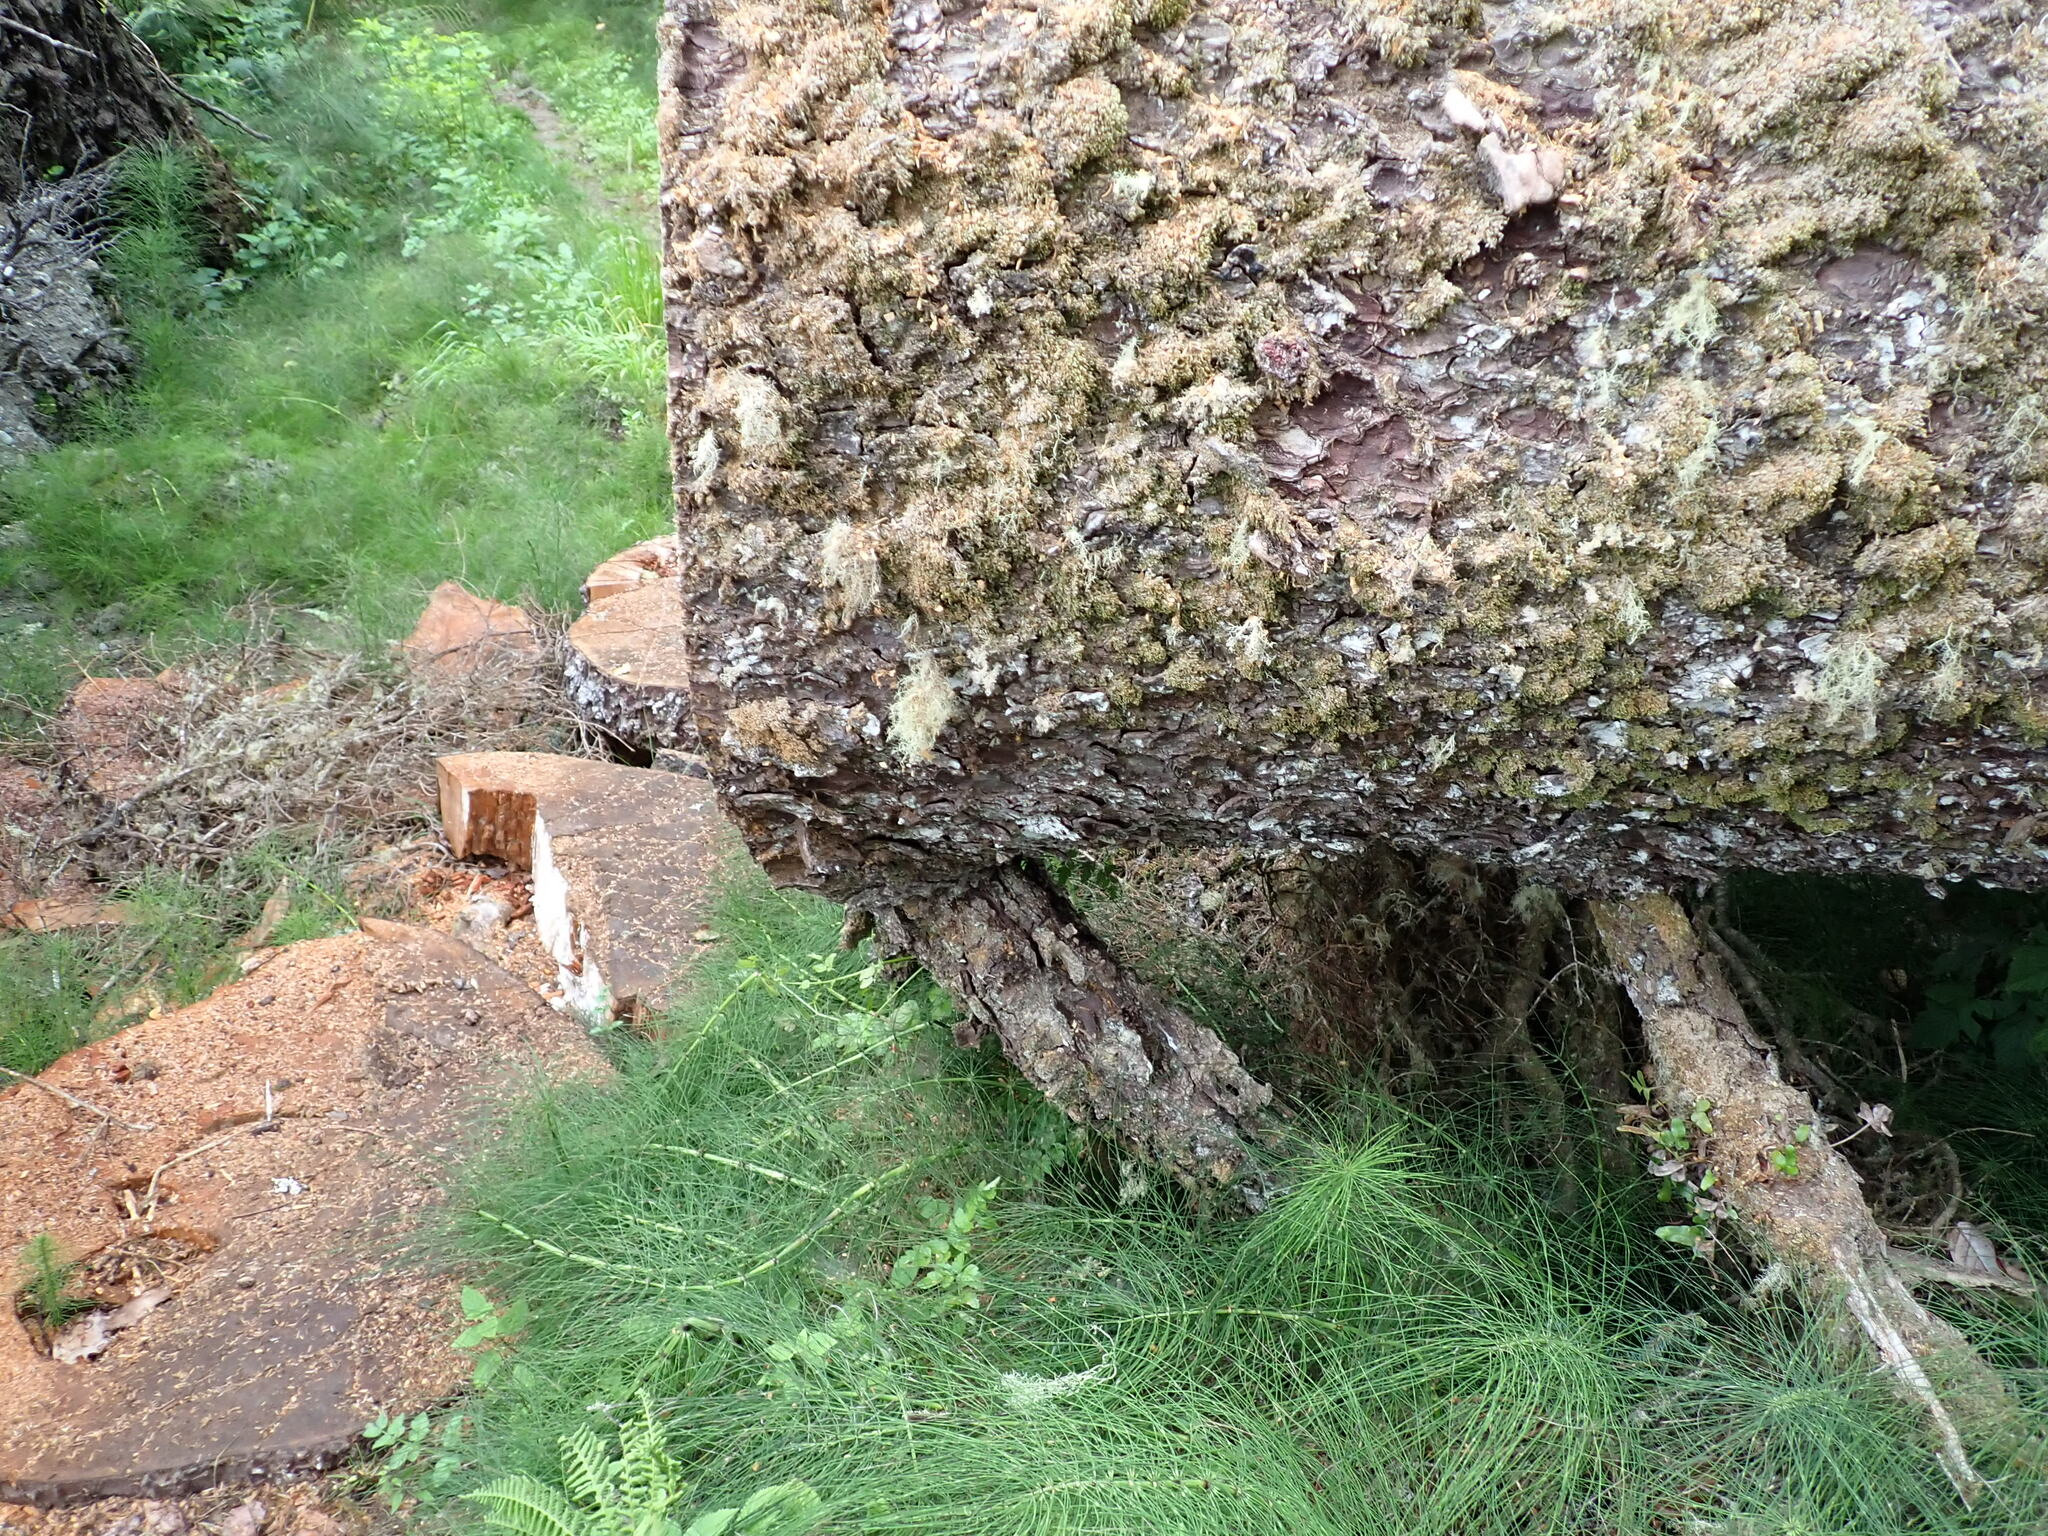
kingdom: Plantae
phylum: Tracheophyta
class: Polypodiopsida
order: Equisetales
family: Equisetaceae
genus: Equisetum
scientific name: Equisetum braunii
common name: Braun's horsetail
